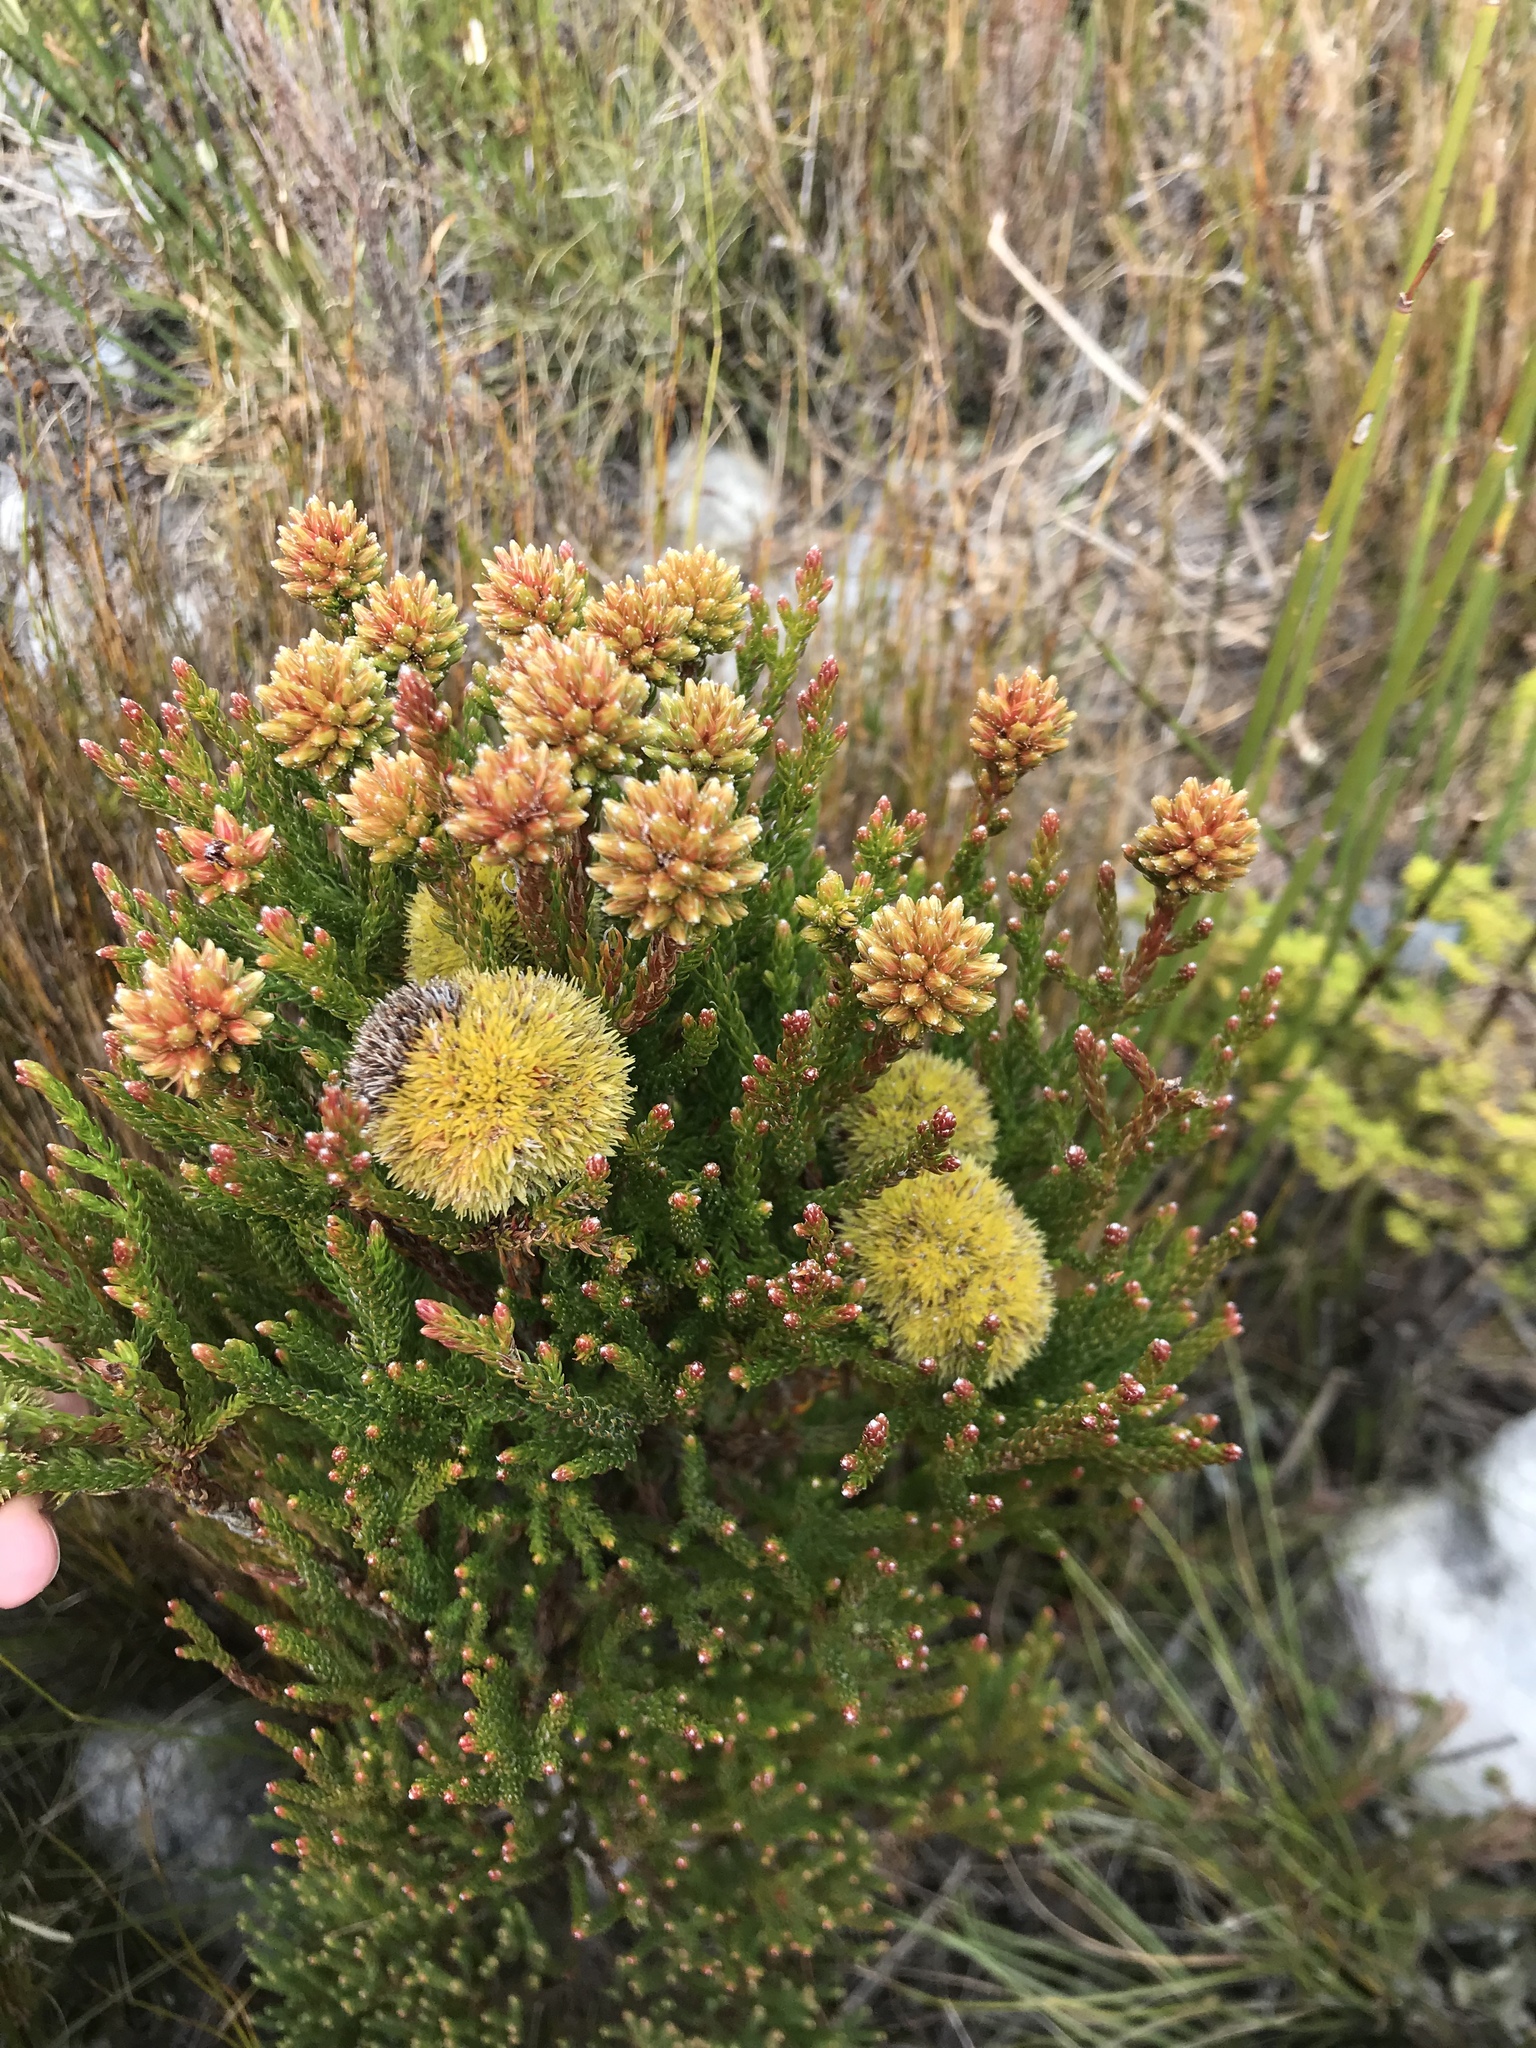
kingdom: Plantae
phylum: Tracheophyta
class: Magnoliopsida
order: Bruniales
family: Bruniaceae
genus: Brunia
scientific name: Brunia fragarioides
